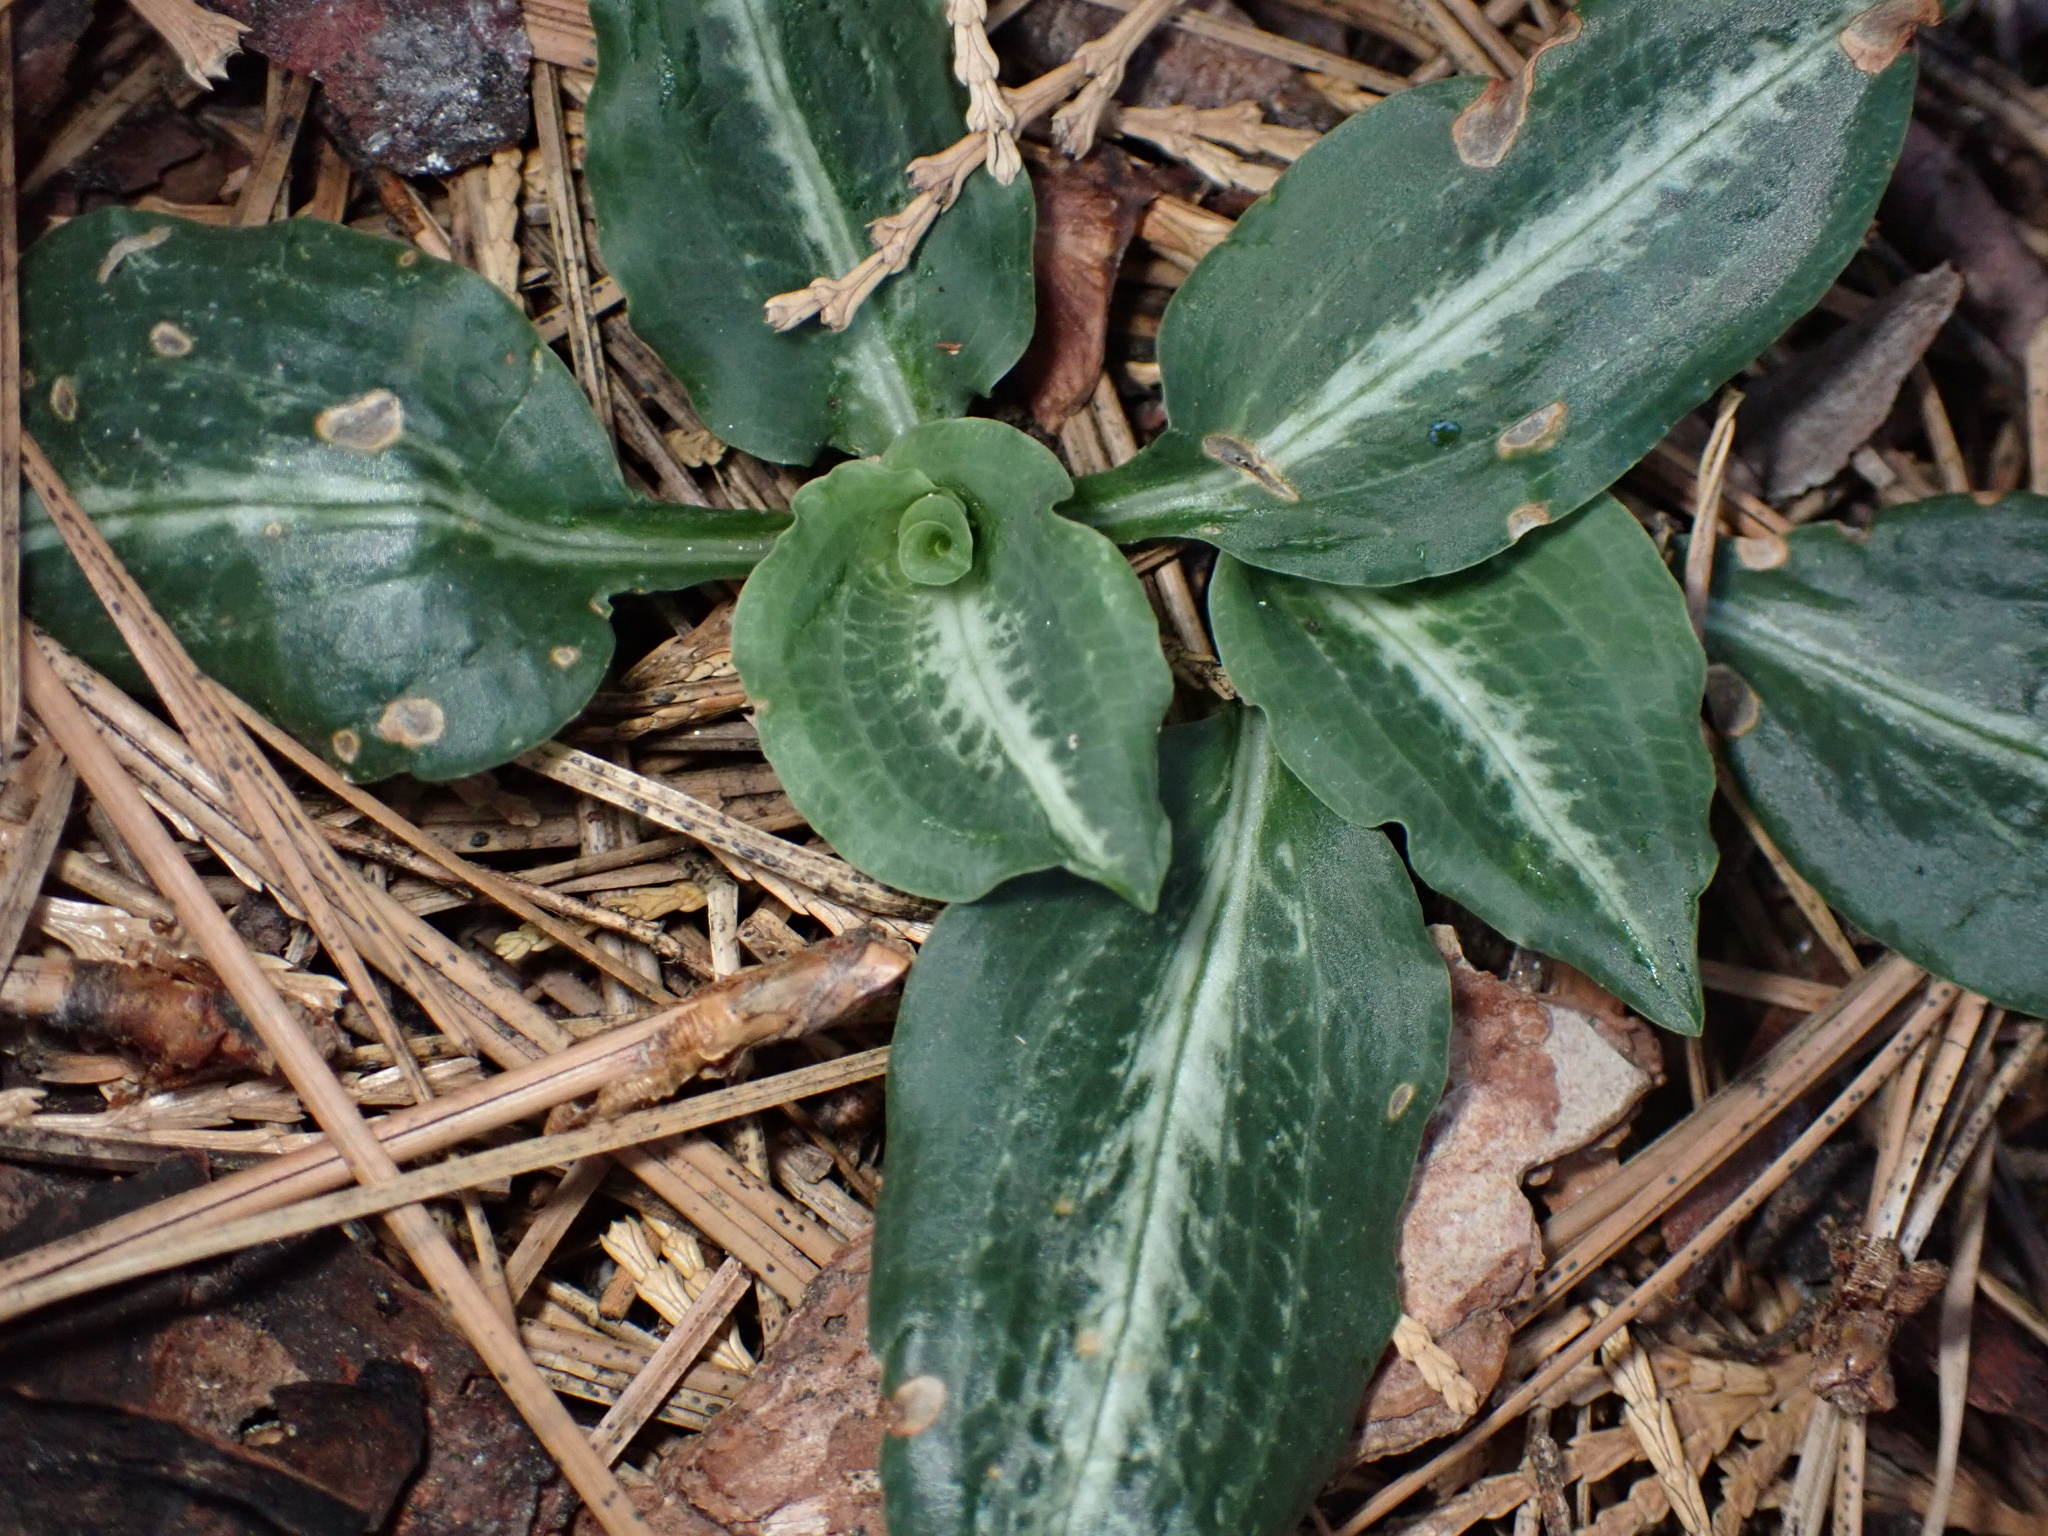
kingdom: Plantae
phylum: Tracheophyta
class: Liliopsida
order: Asparagales
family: Orchidaceae
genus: Goodyera
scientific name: Goodyera oblongifolia
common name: Giant rattlesnake-plantain
